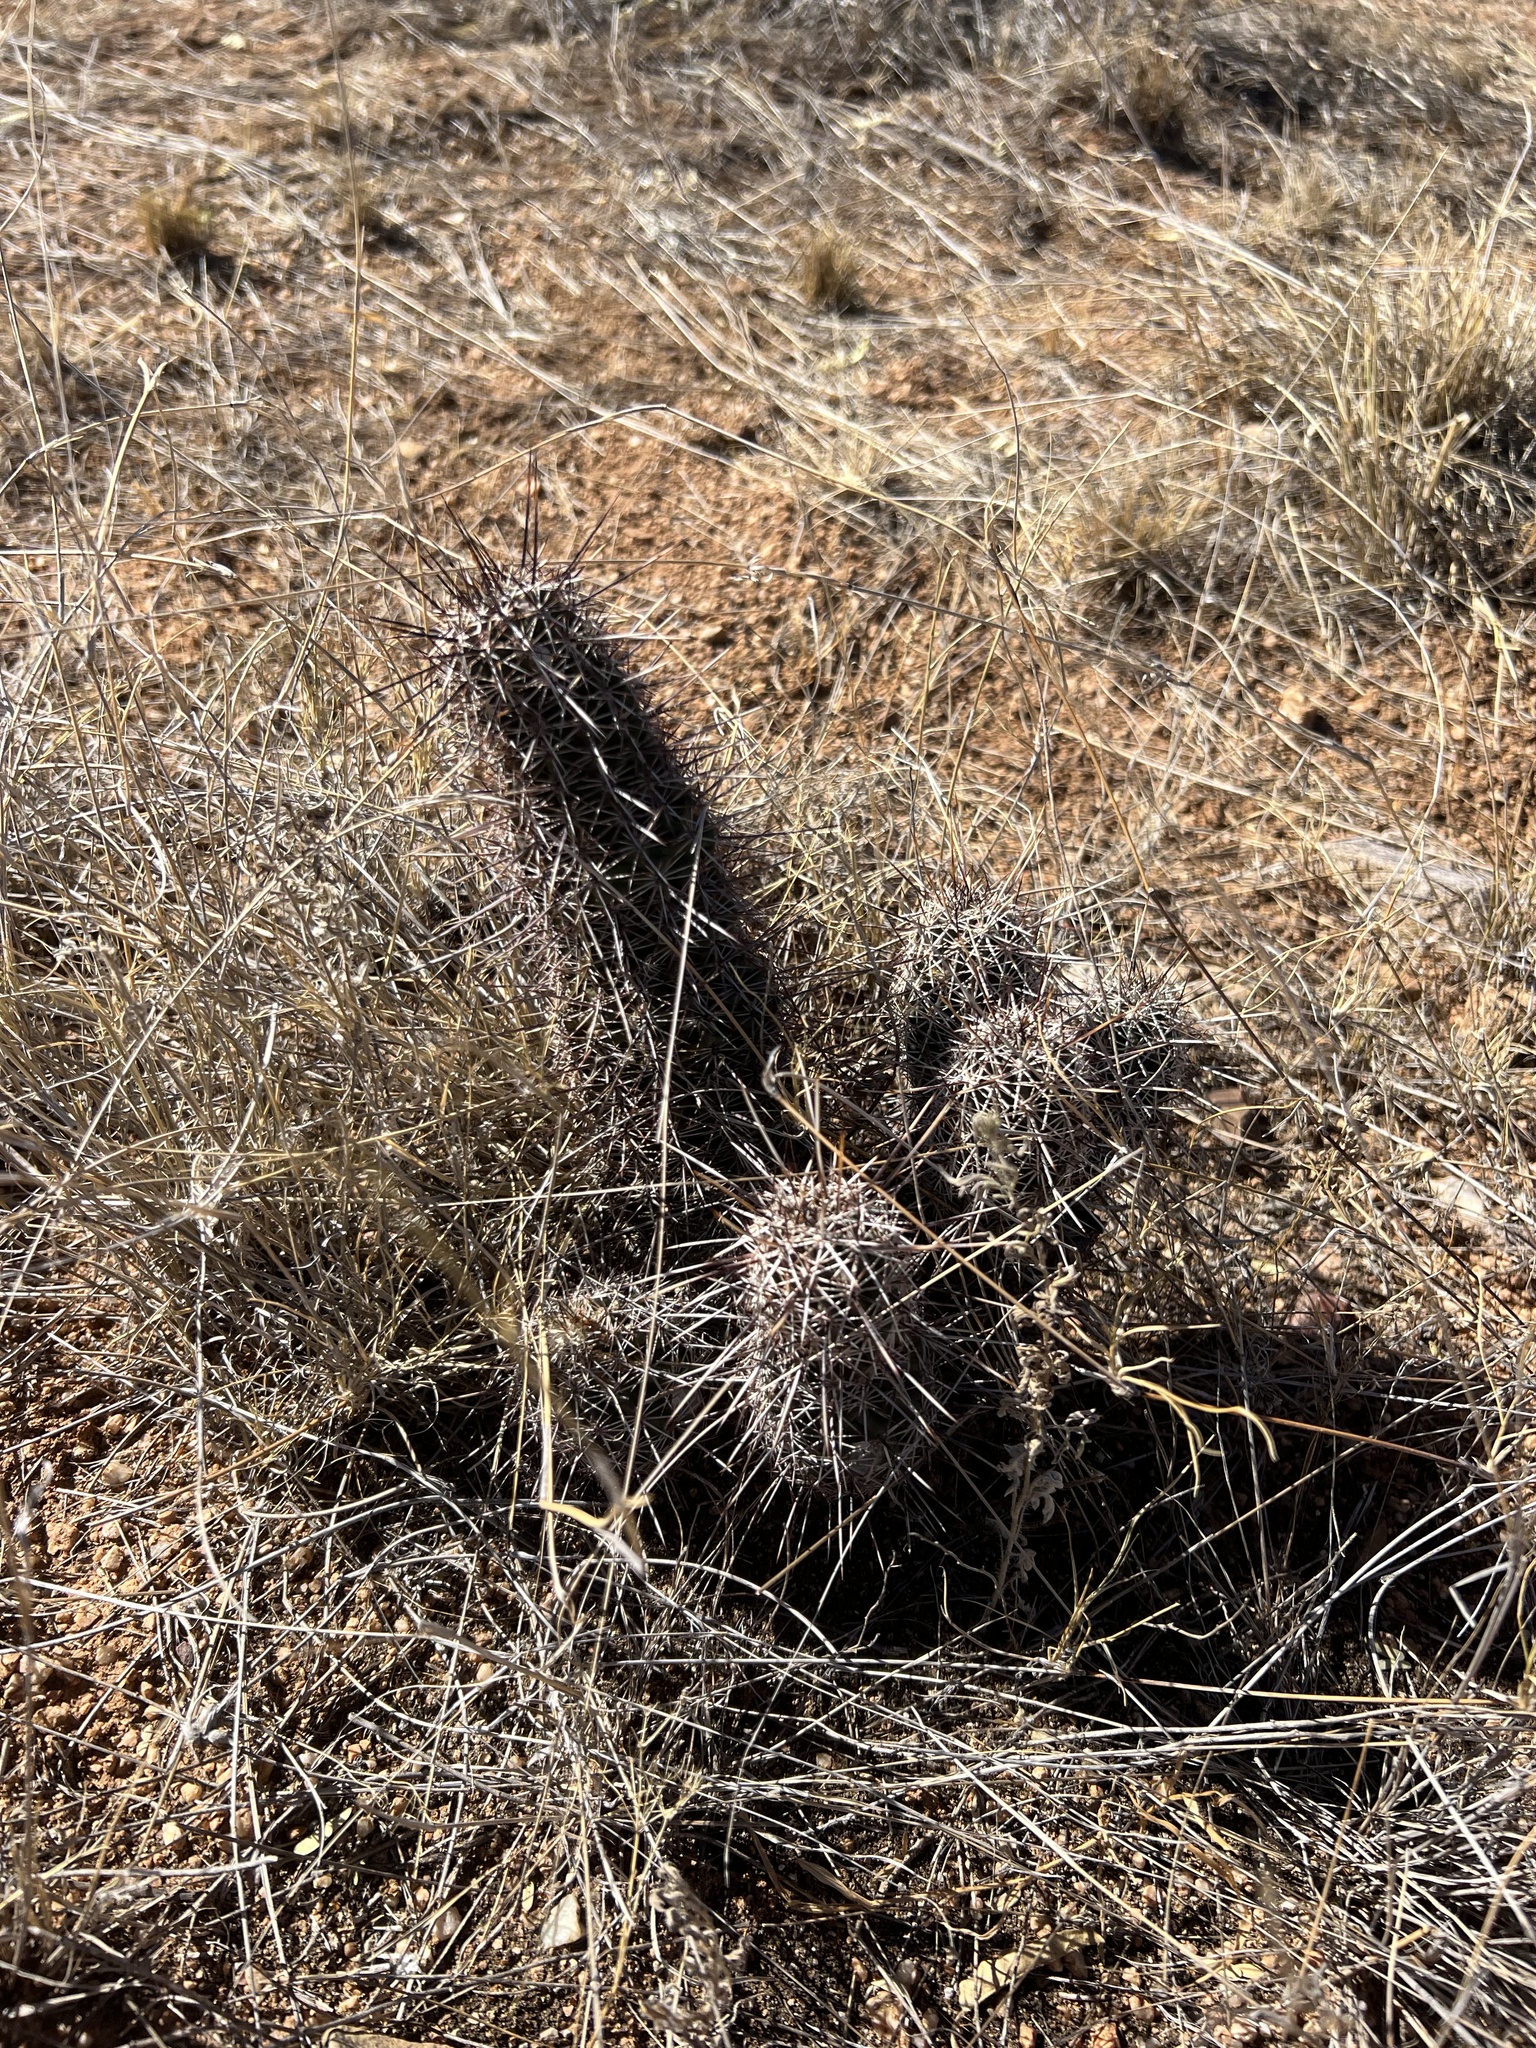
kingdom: Plantae
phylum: Tracheophyta
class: Magnoliopsida
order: Caryophyllales
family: Cactaceae
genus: Echinocereus
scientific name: Echinocereus fasciculatus
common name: Bundle hedgehog
